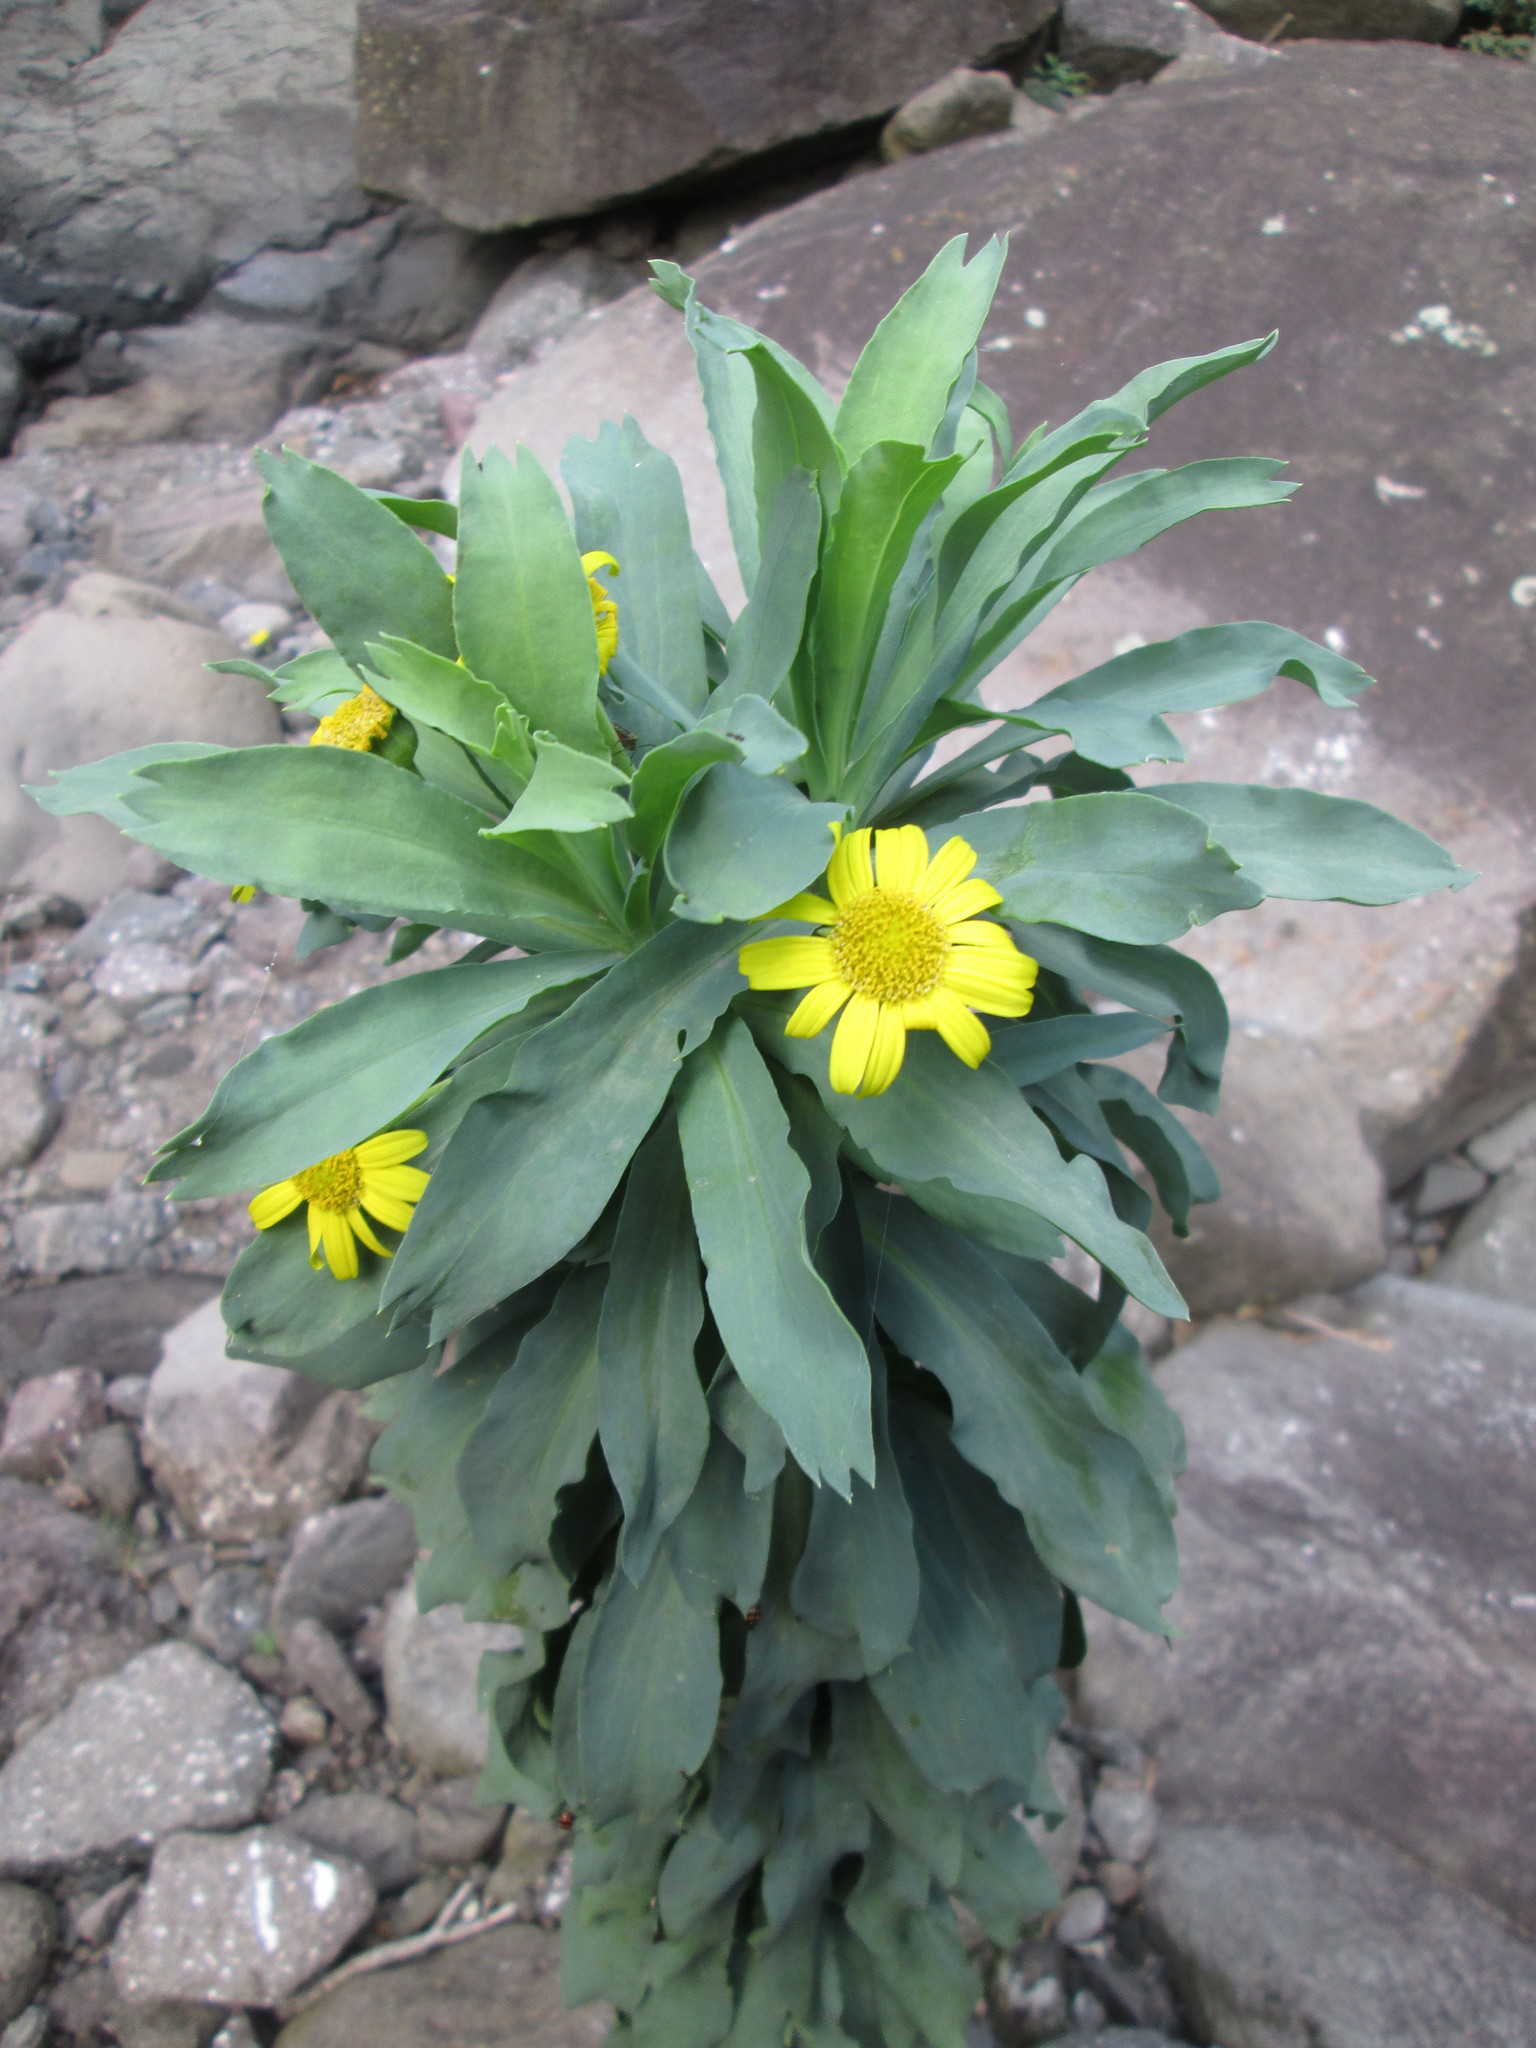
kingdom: Plantae
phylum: Tracheophyta
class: Magnoliopsida
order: Asterales
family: Asteraceae
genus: Euryops
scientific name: Euryops evansii
